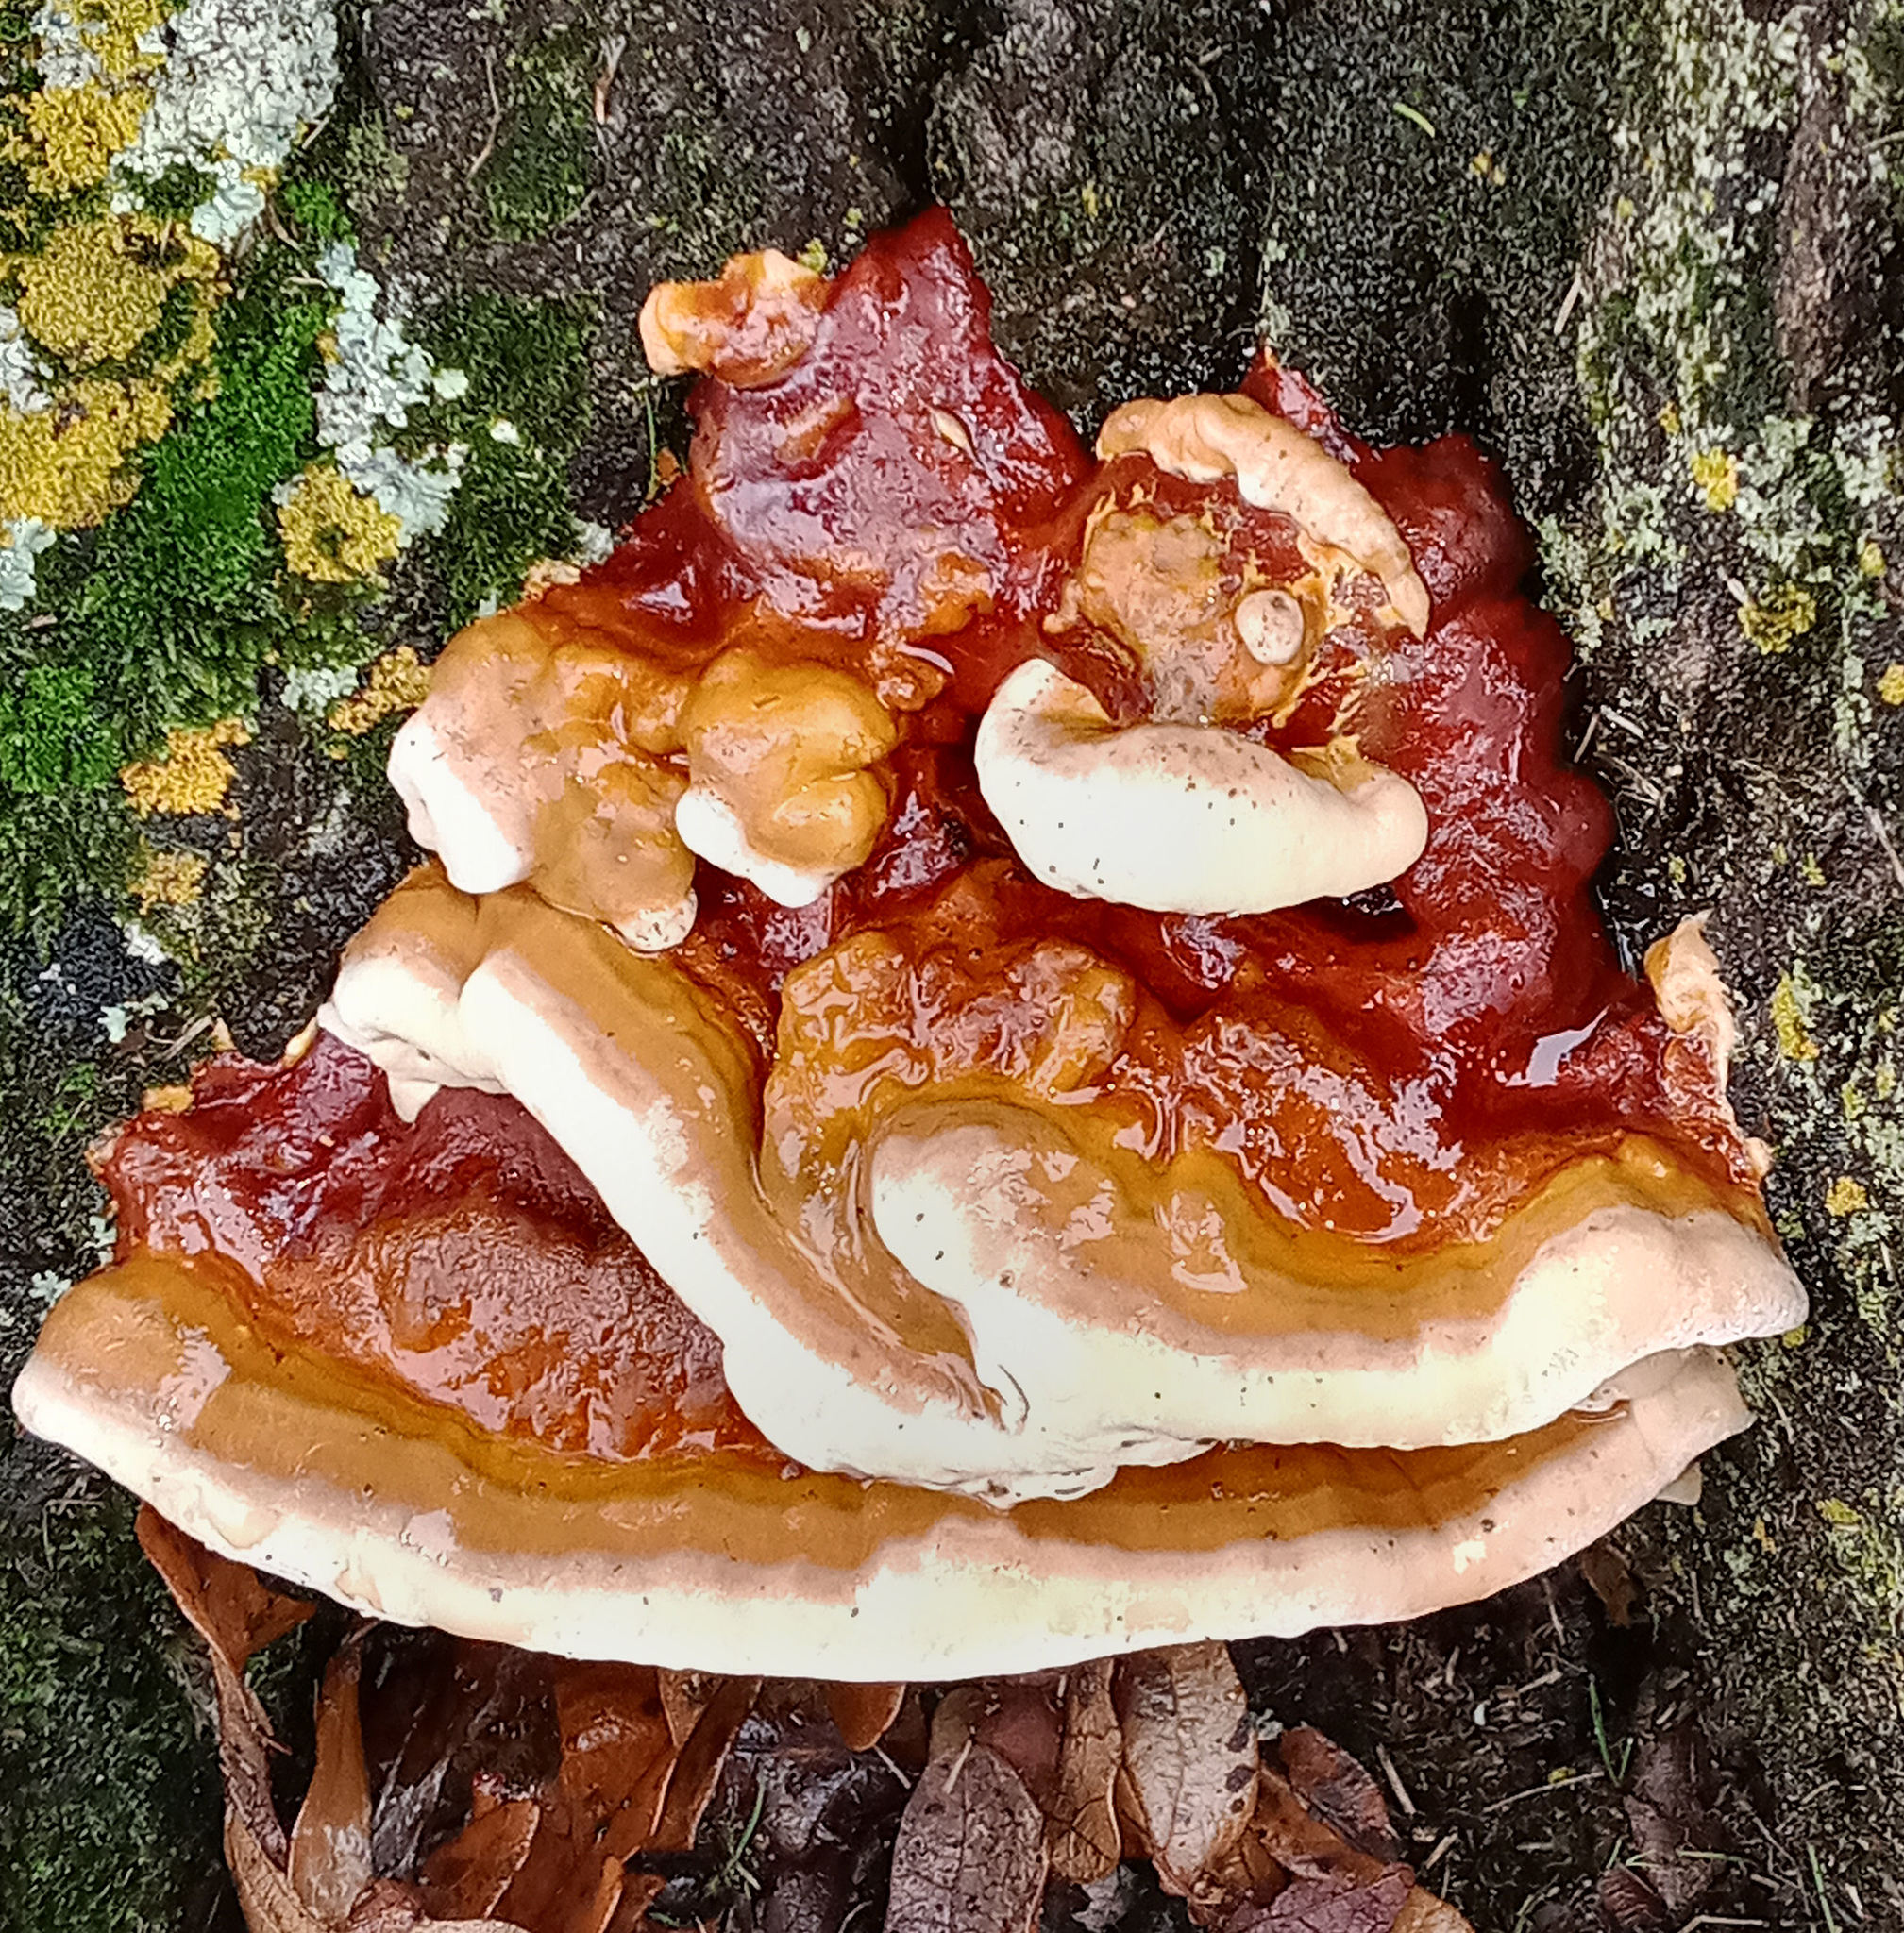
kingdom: Fungi
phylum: Basidiomycota
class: Agaricomycetes
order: Polyporales
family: Polyporaceae
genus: Ganoderma
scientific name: Ganoderma resinaceum
